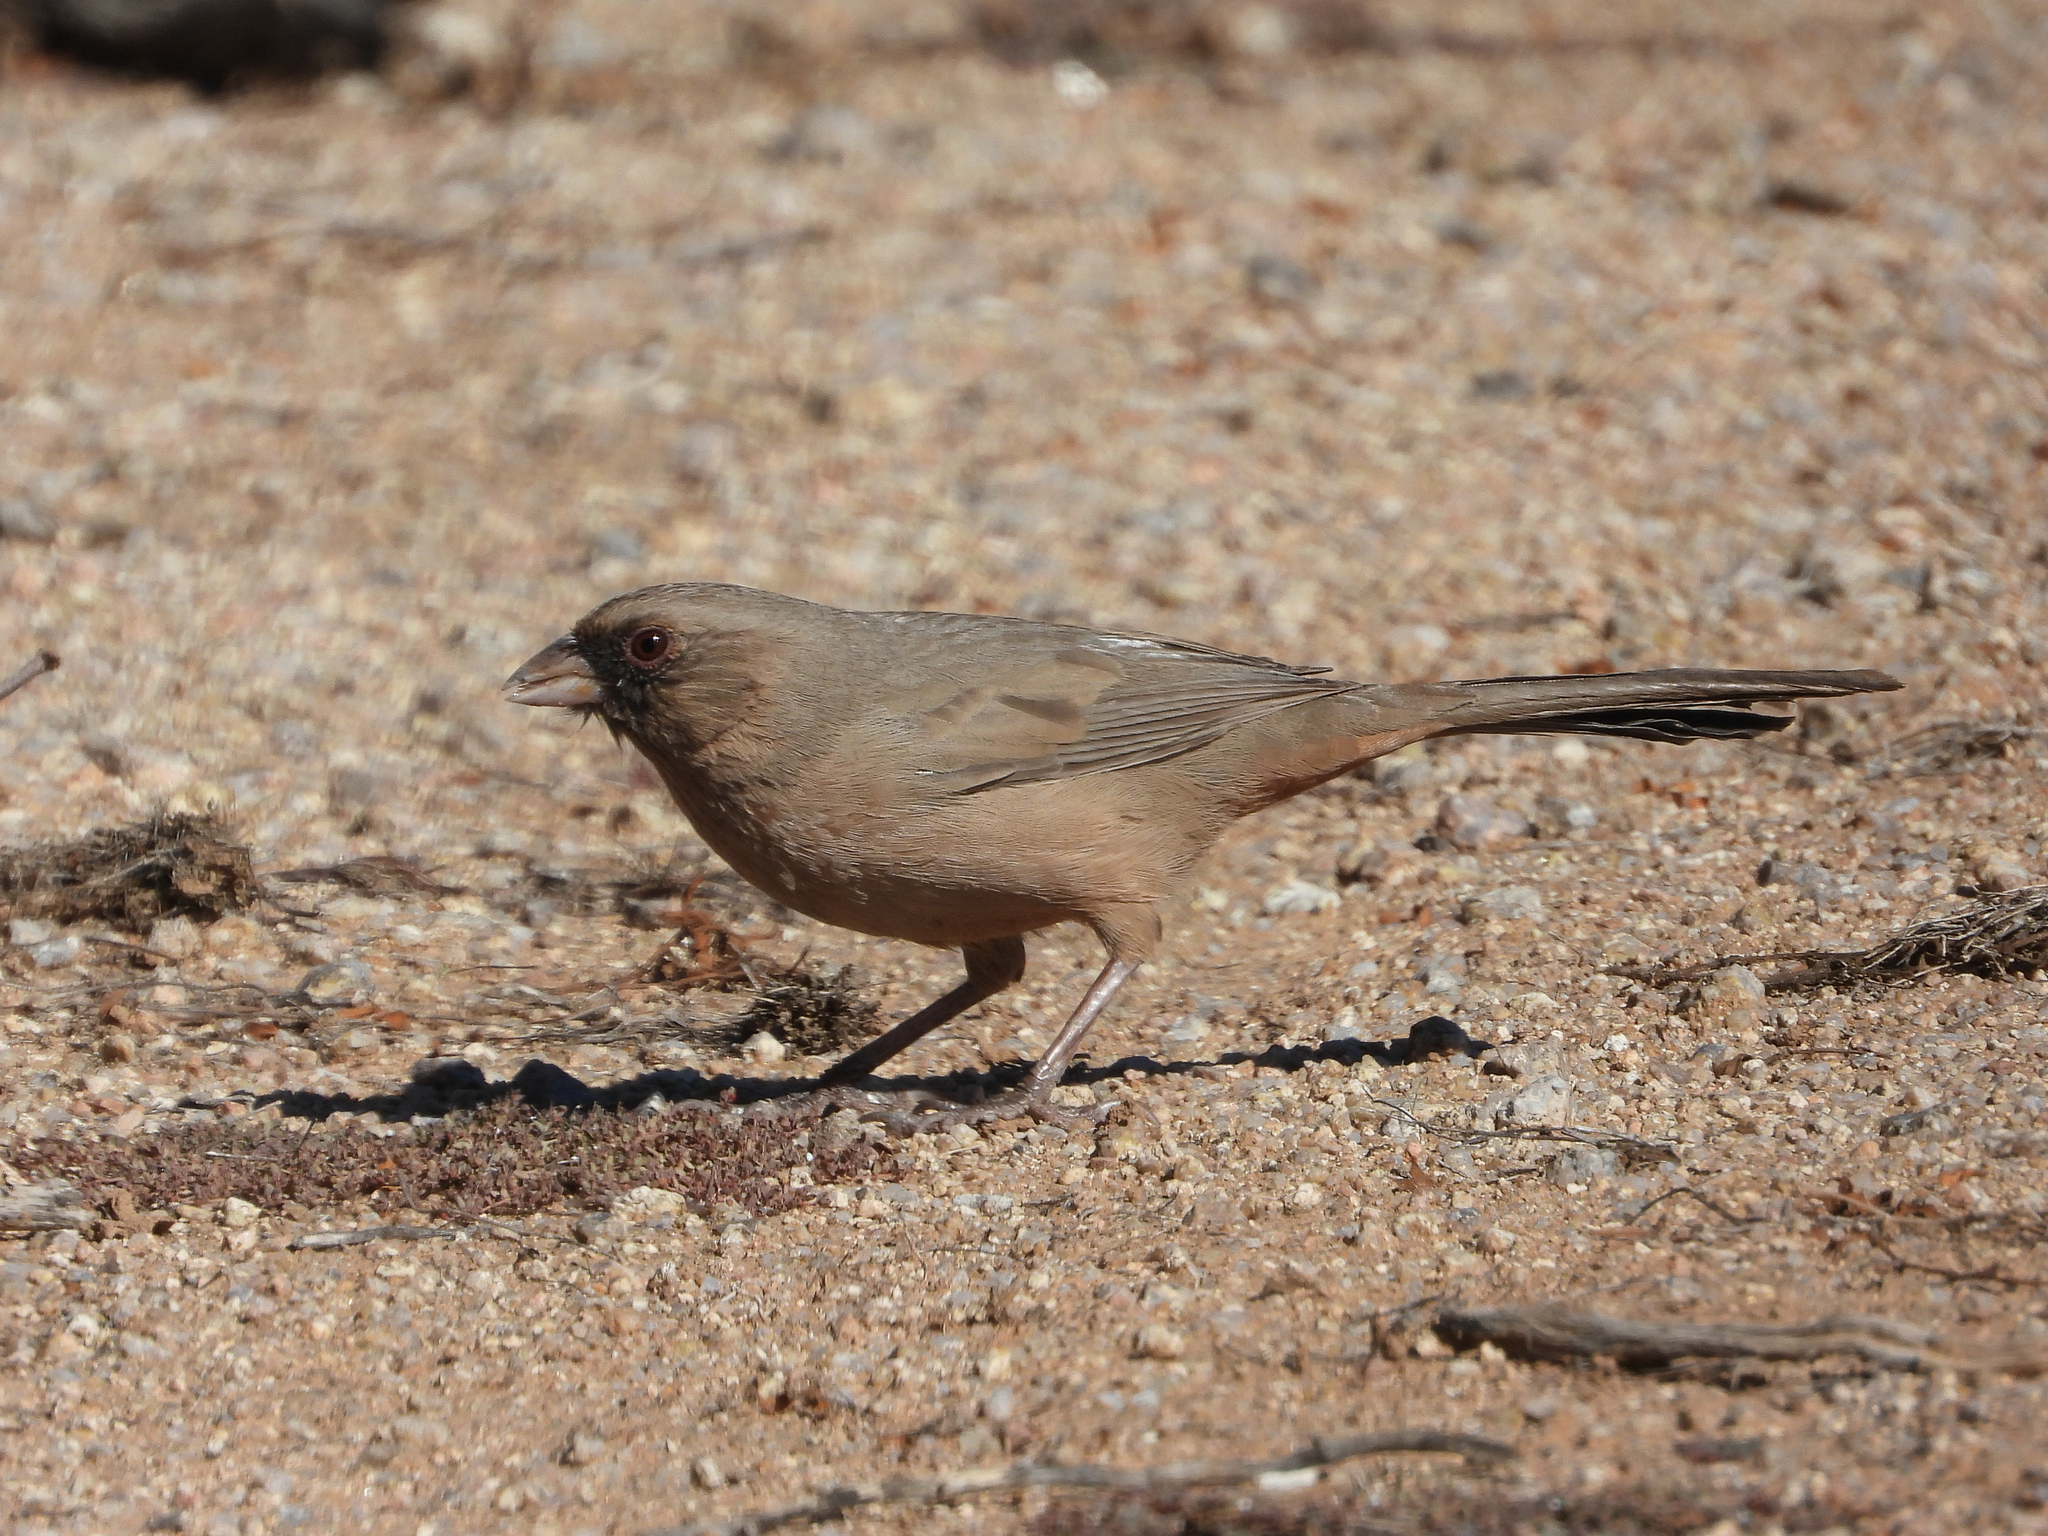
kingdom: Animalia
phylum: Chordata
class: Aves
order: Passeriformes
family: Passerellidae
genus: Melozone
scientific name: Melozone aberti
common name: Abert's towhee
